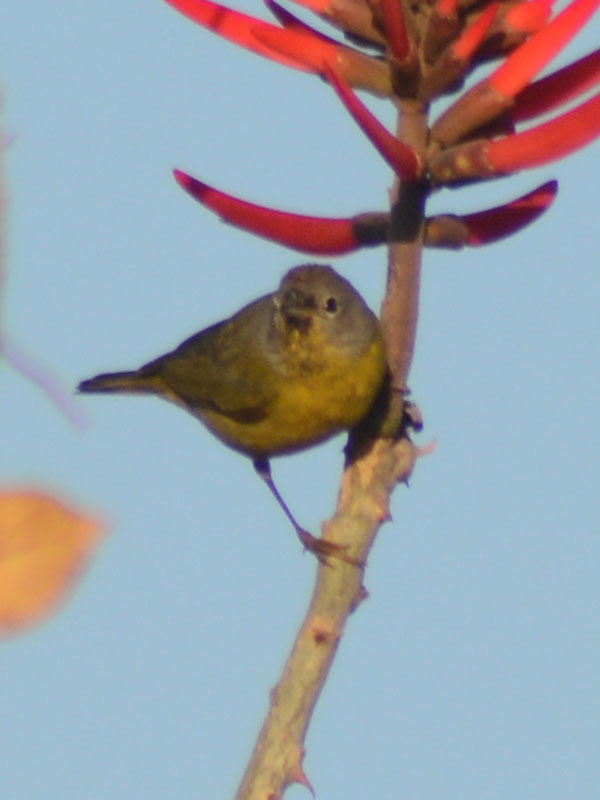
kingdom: Animalia
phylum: Chordata
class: Aves
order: Passeriformes
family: Parulidae
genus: Leiothlypis
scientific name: Leiothlypis ruficapilla
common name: Nashville warbler
